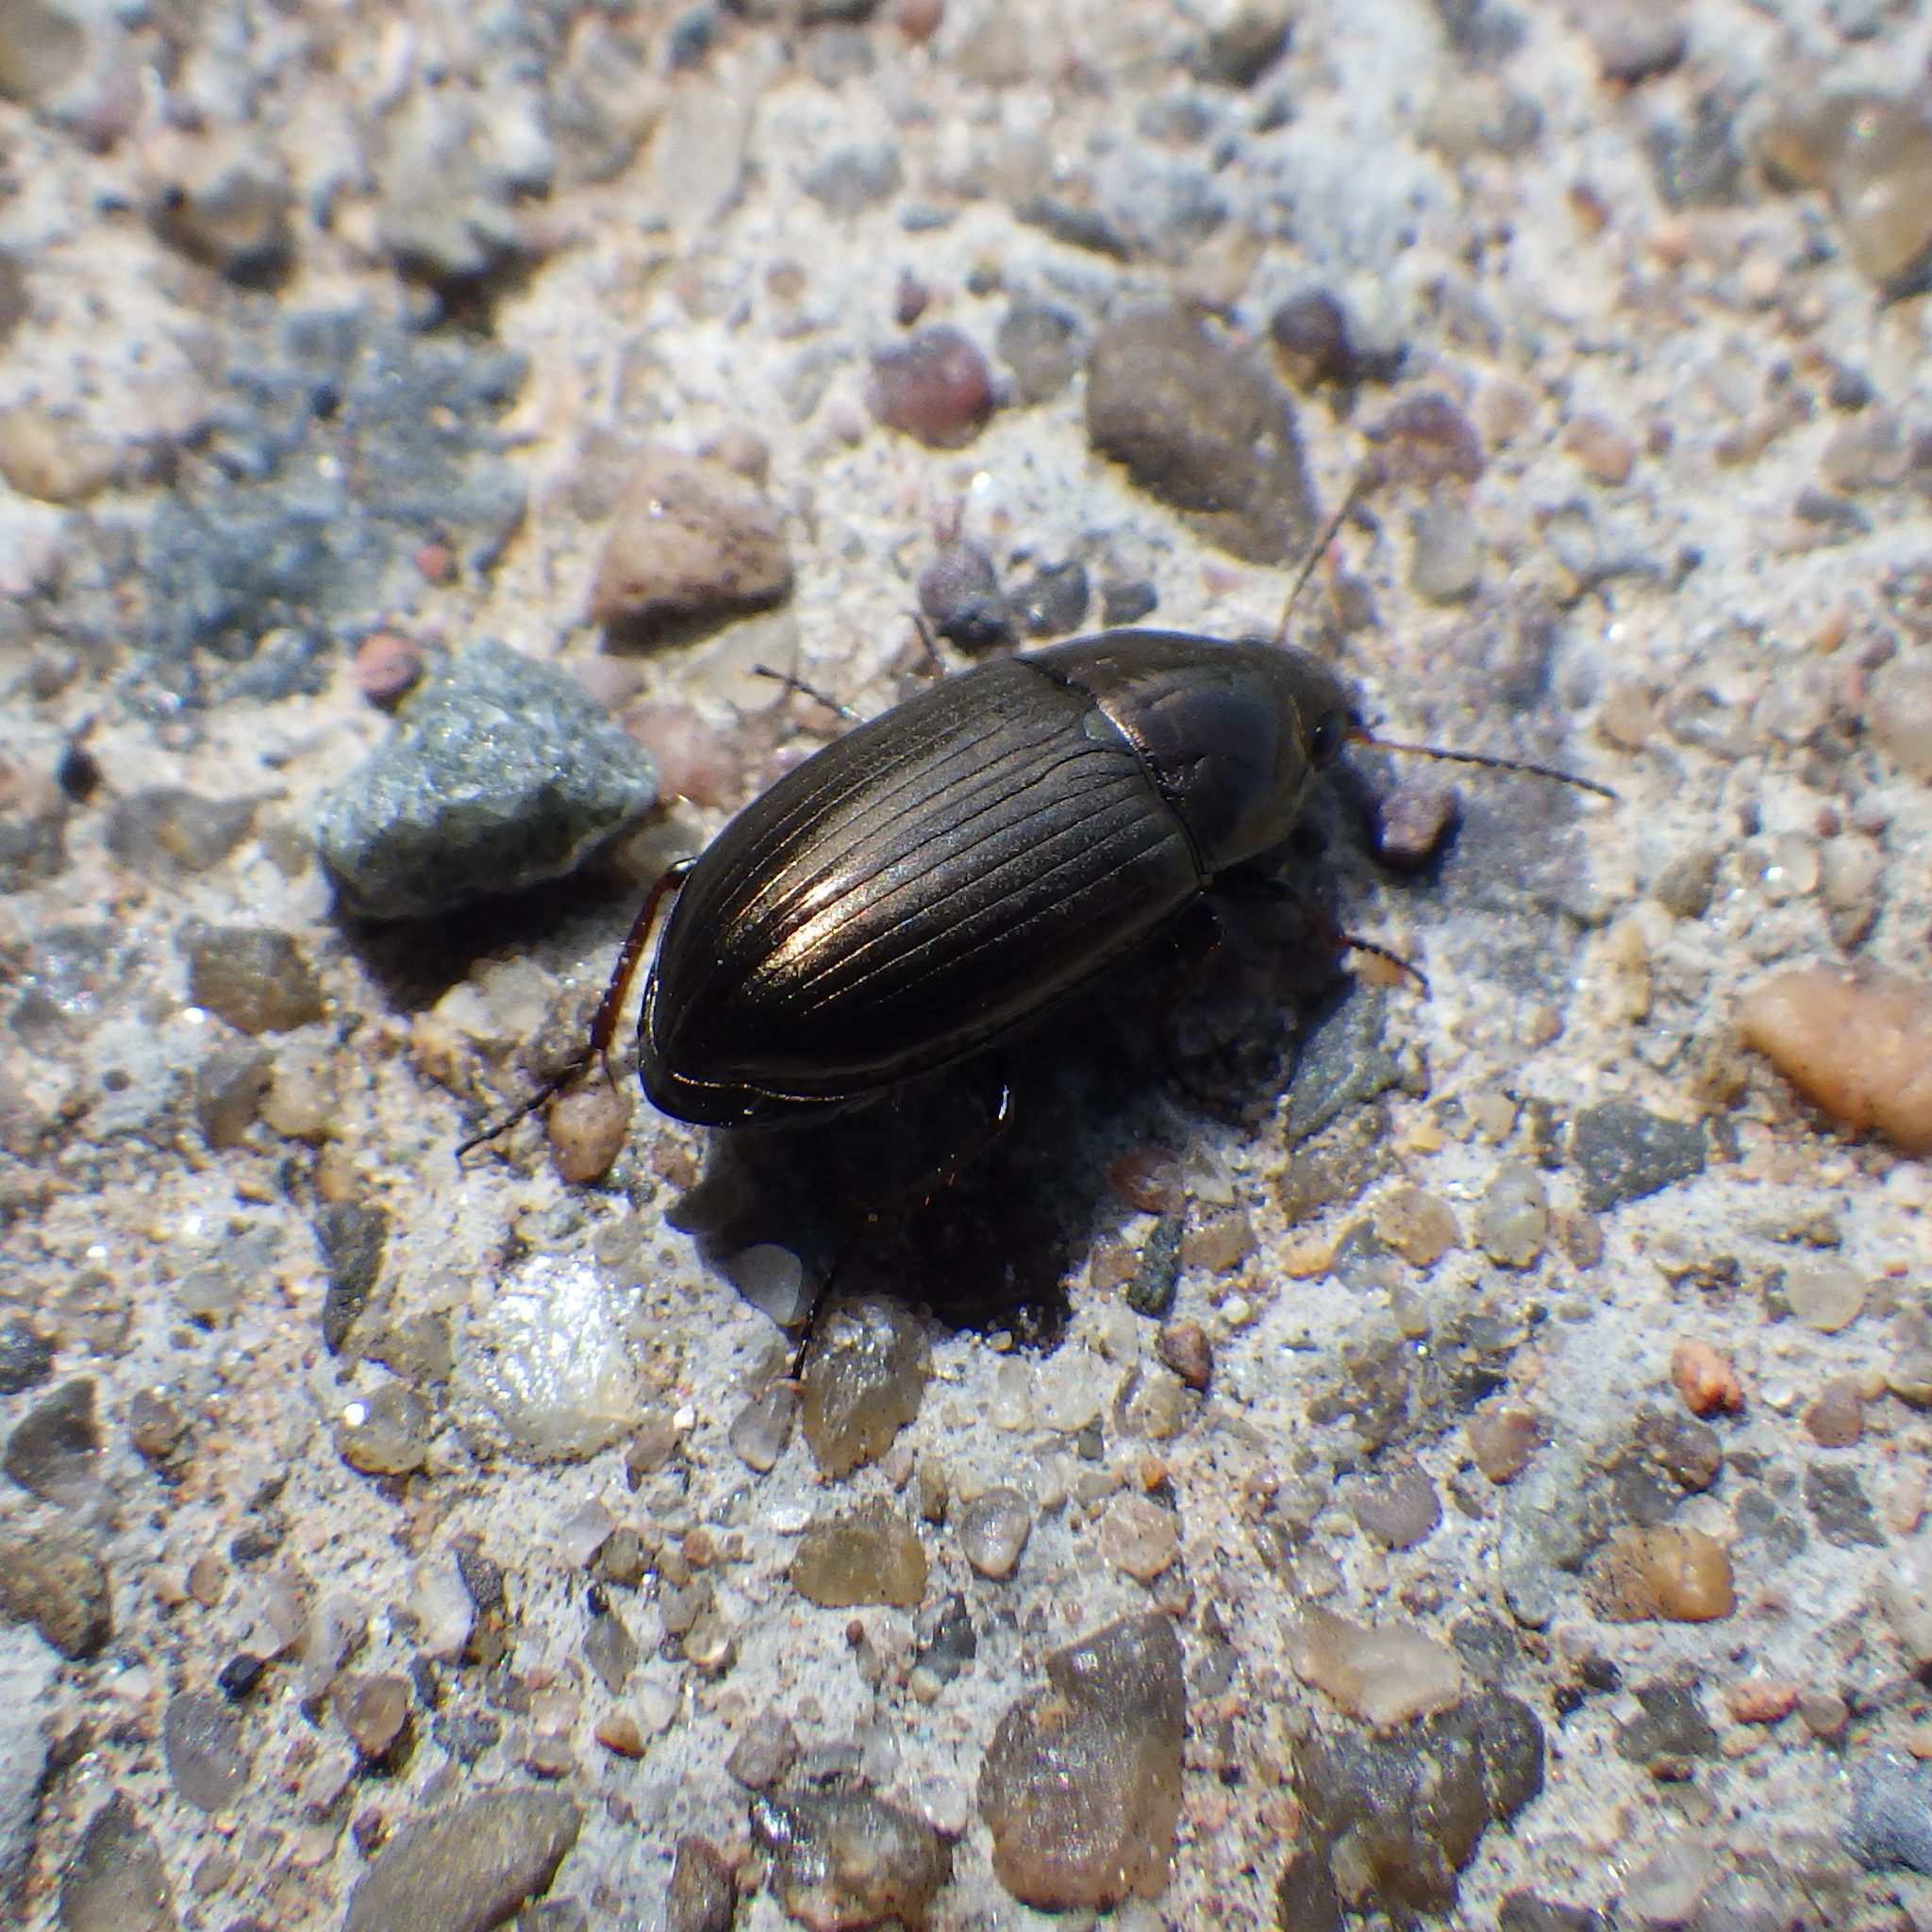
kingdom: Animalia
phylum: Arthropoda
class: Insecta
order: Coleoptera
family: Carabidae
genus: Amara
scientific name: Amara
